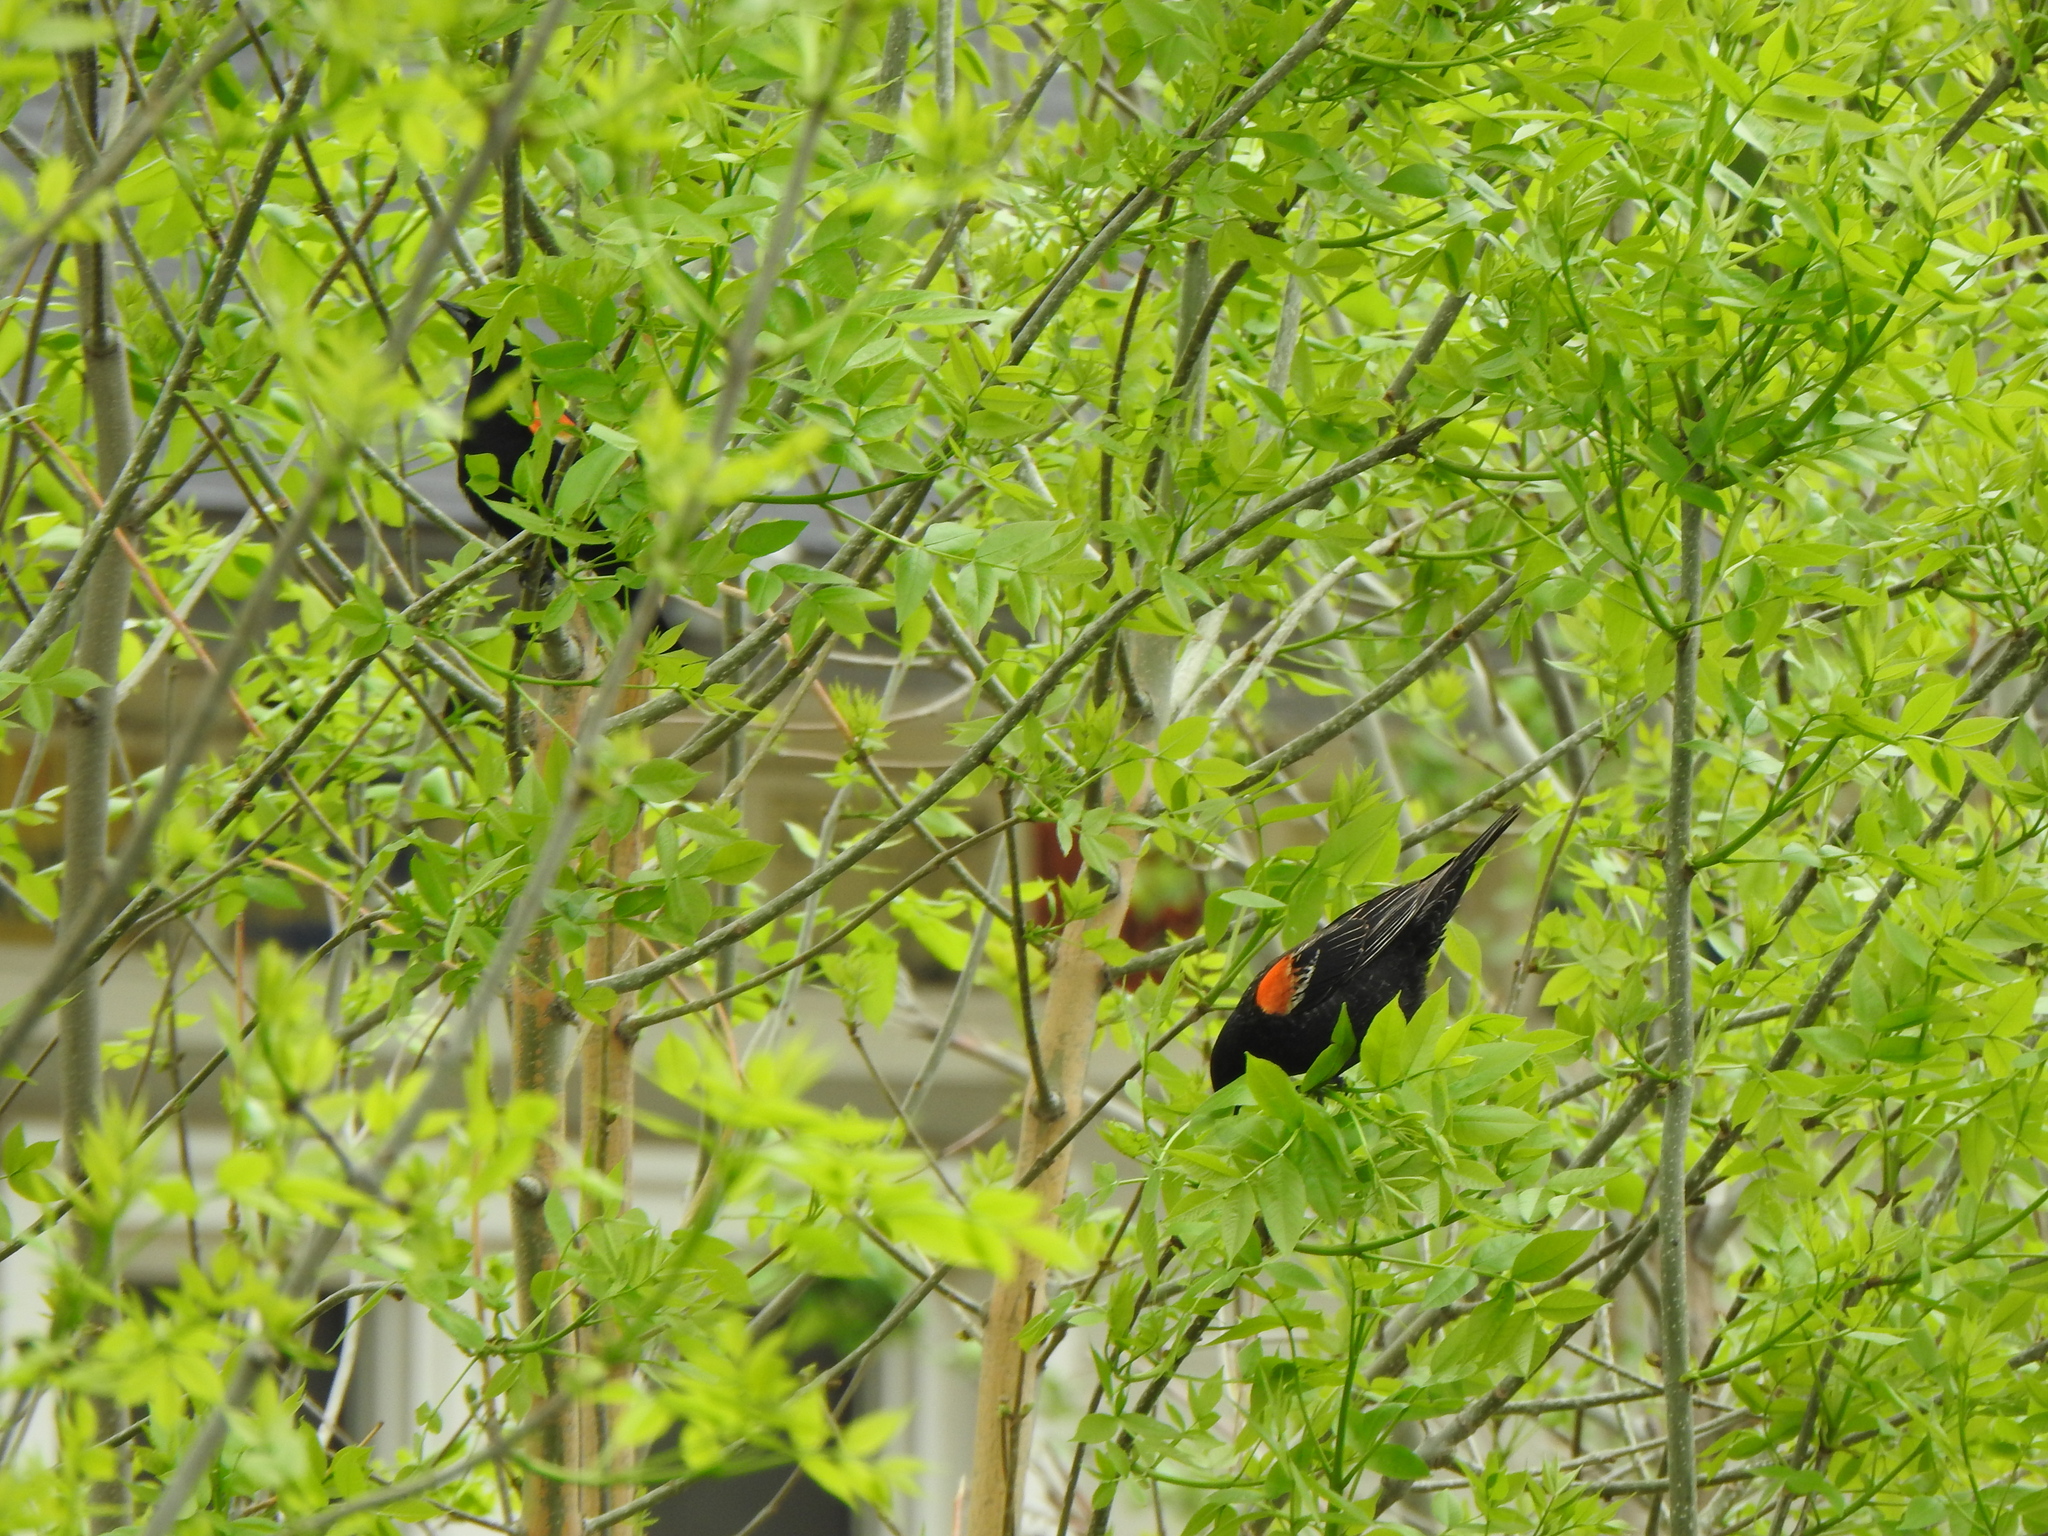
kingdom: Animalia
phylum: Chordata
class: Aves
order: Passeriformes
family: Icteridae
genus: Agelaius
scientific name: Agelaius phoeniceus
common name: Red-winged blackbird
